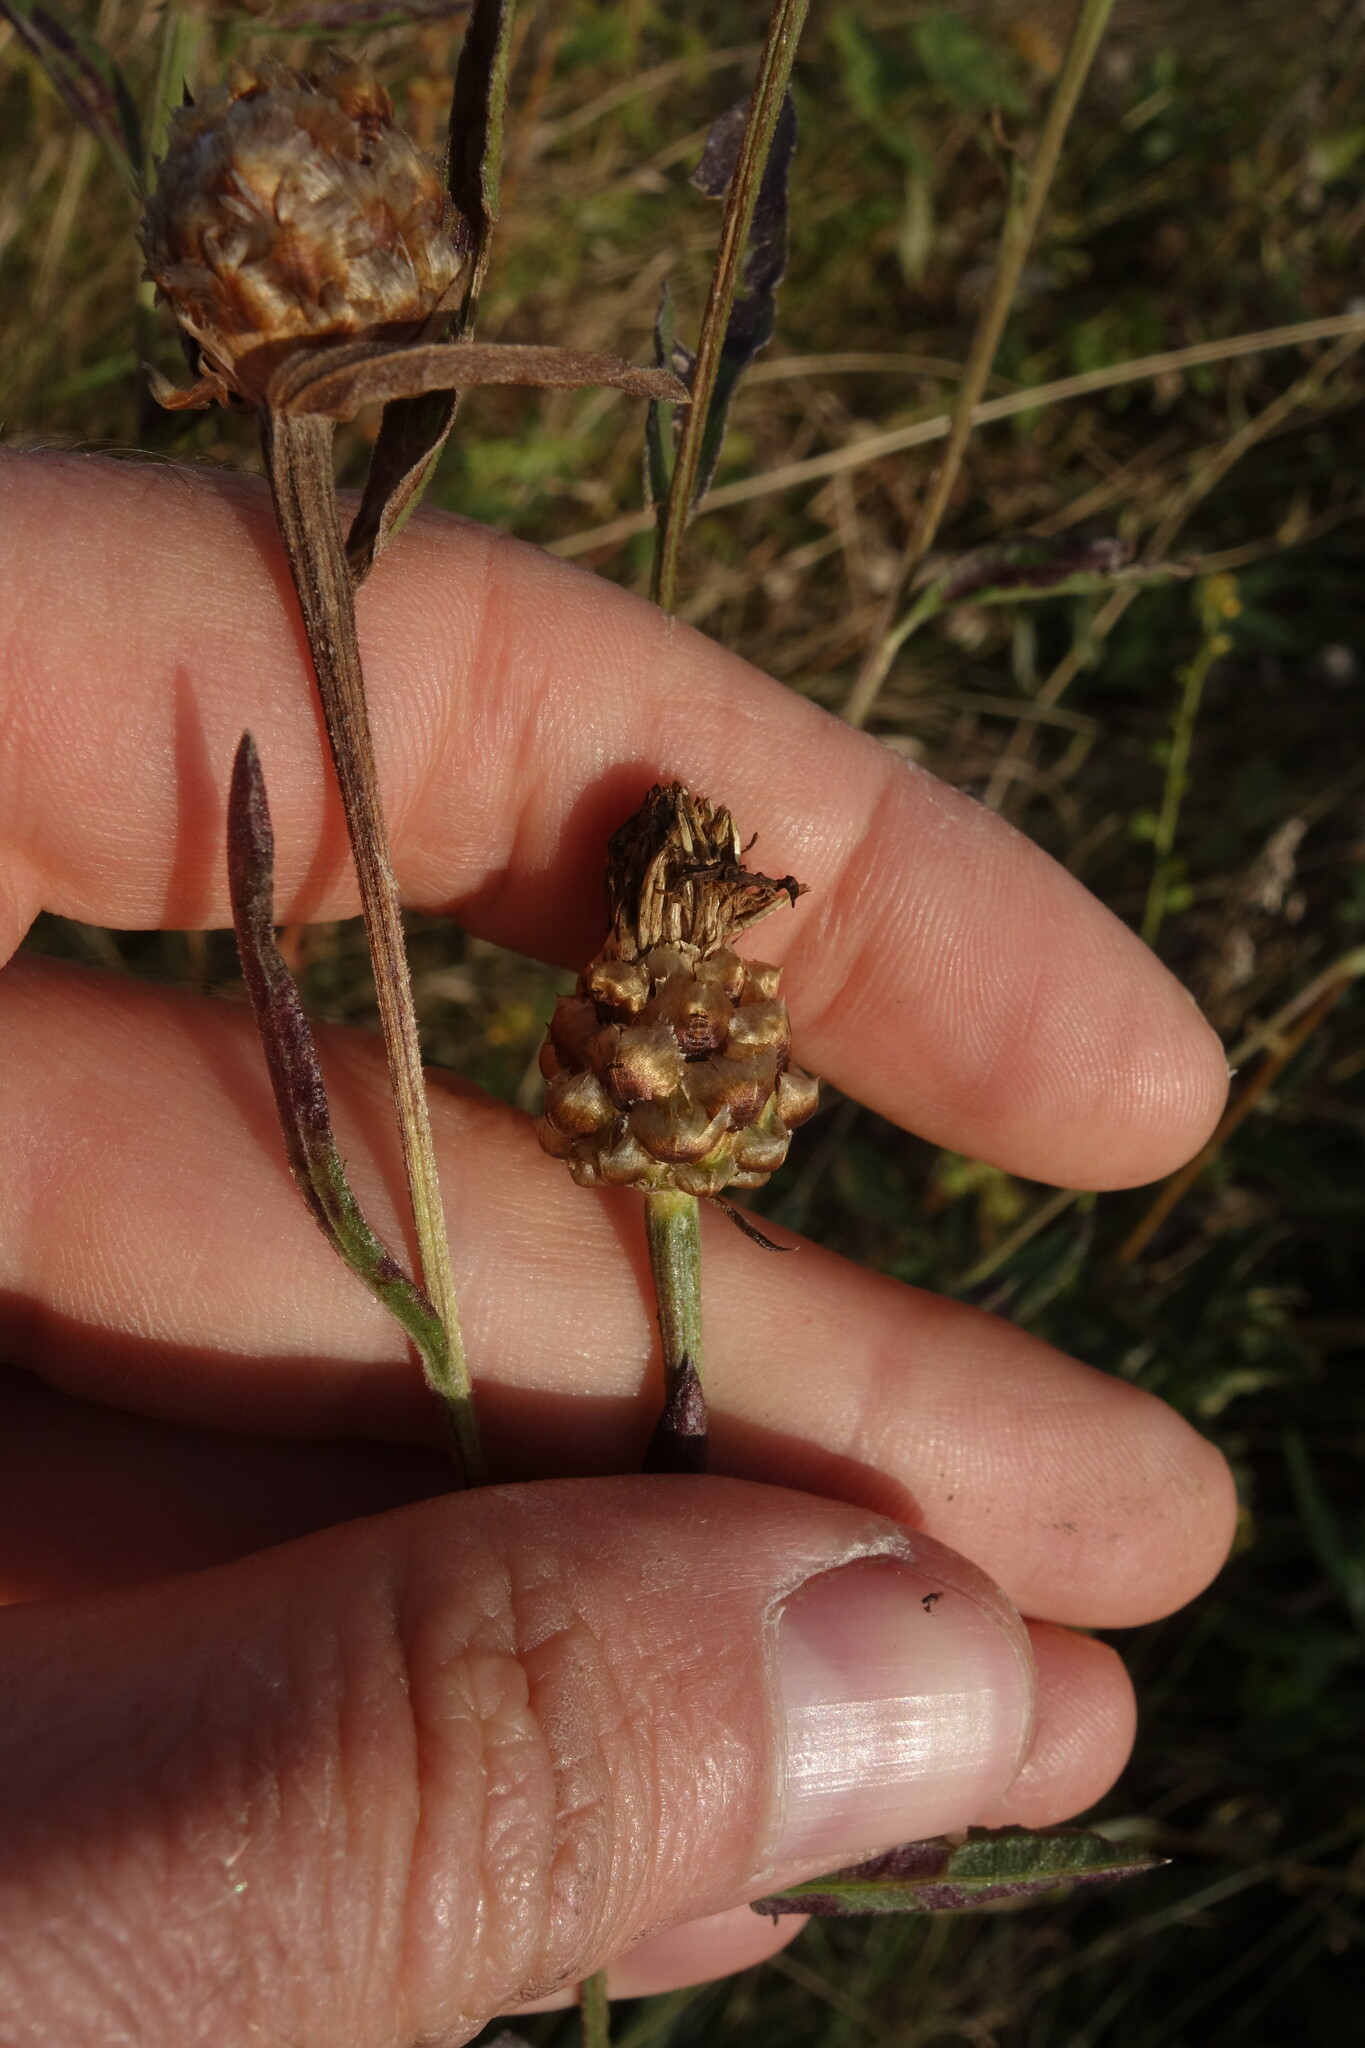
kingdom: Plantae
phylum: Tracheophyta
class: Magnoliopsida
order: Asterales
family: Asteraceae
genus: Centaurea
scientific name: Centaurea jacea
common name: Brown knapweed
